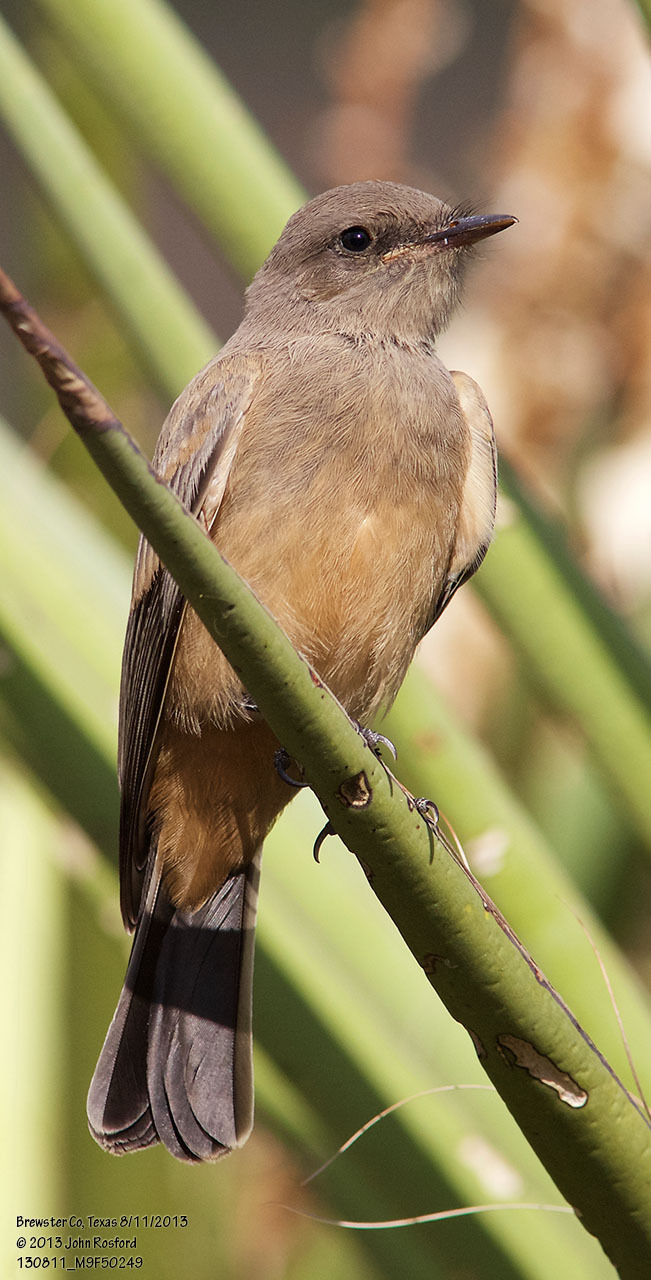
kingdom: Animalia
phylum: Chordata
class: Aves
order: Passeriformes
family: Tyrannidae
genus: Sayornis
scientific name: Sayornis saya
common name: Say's phoebe
